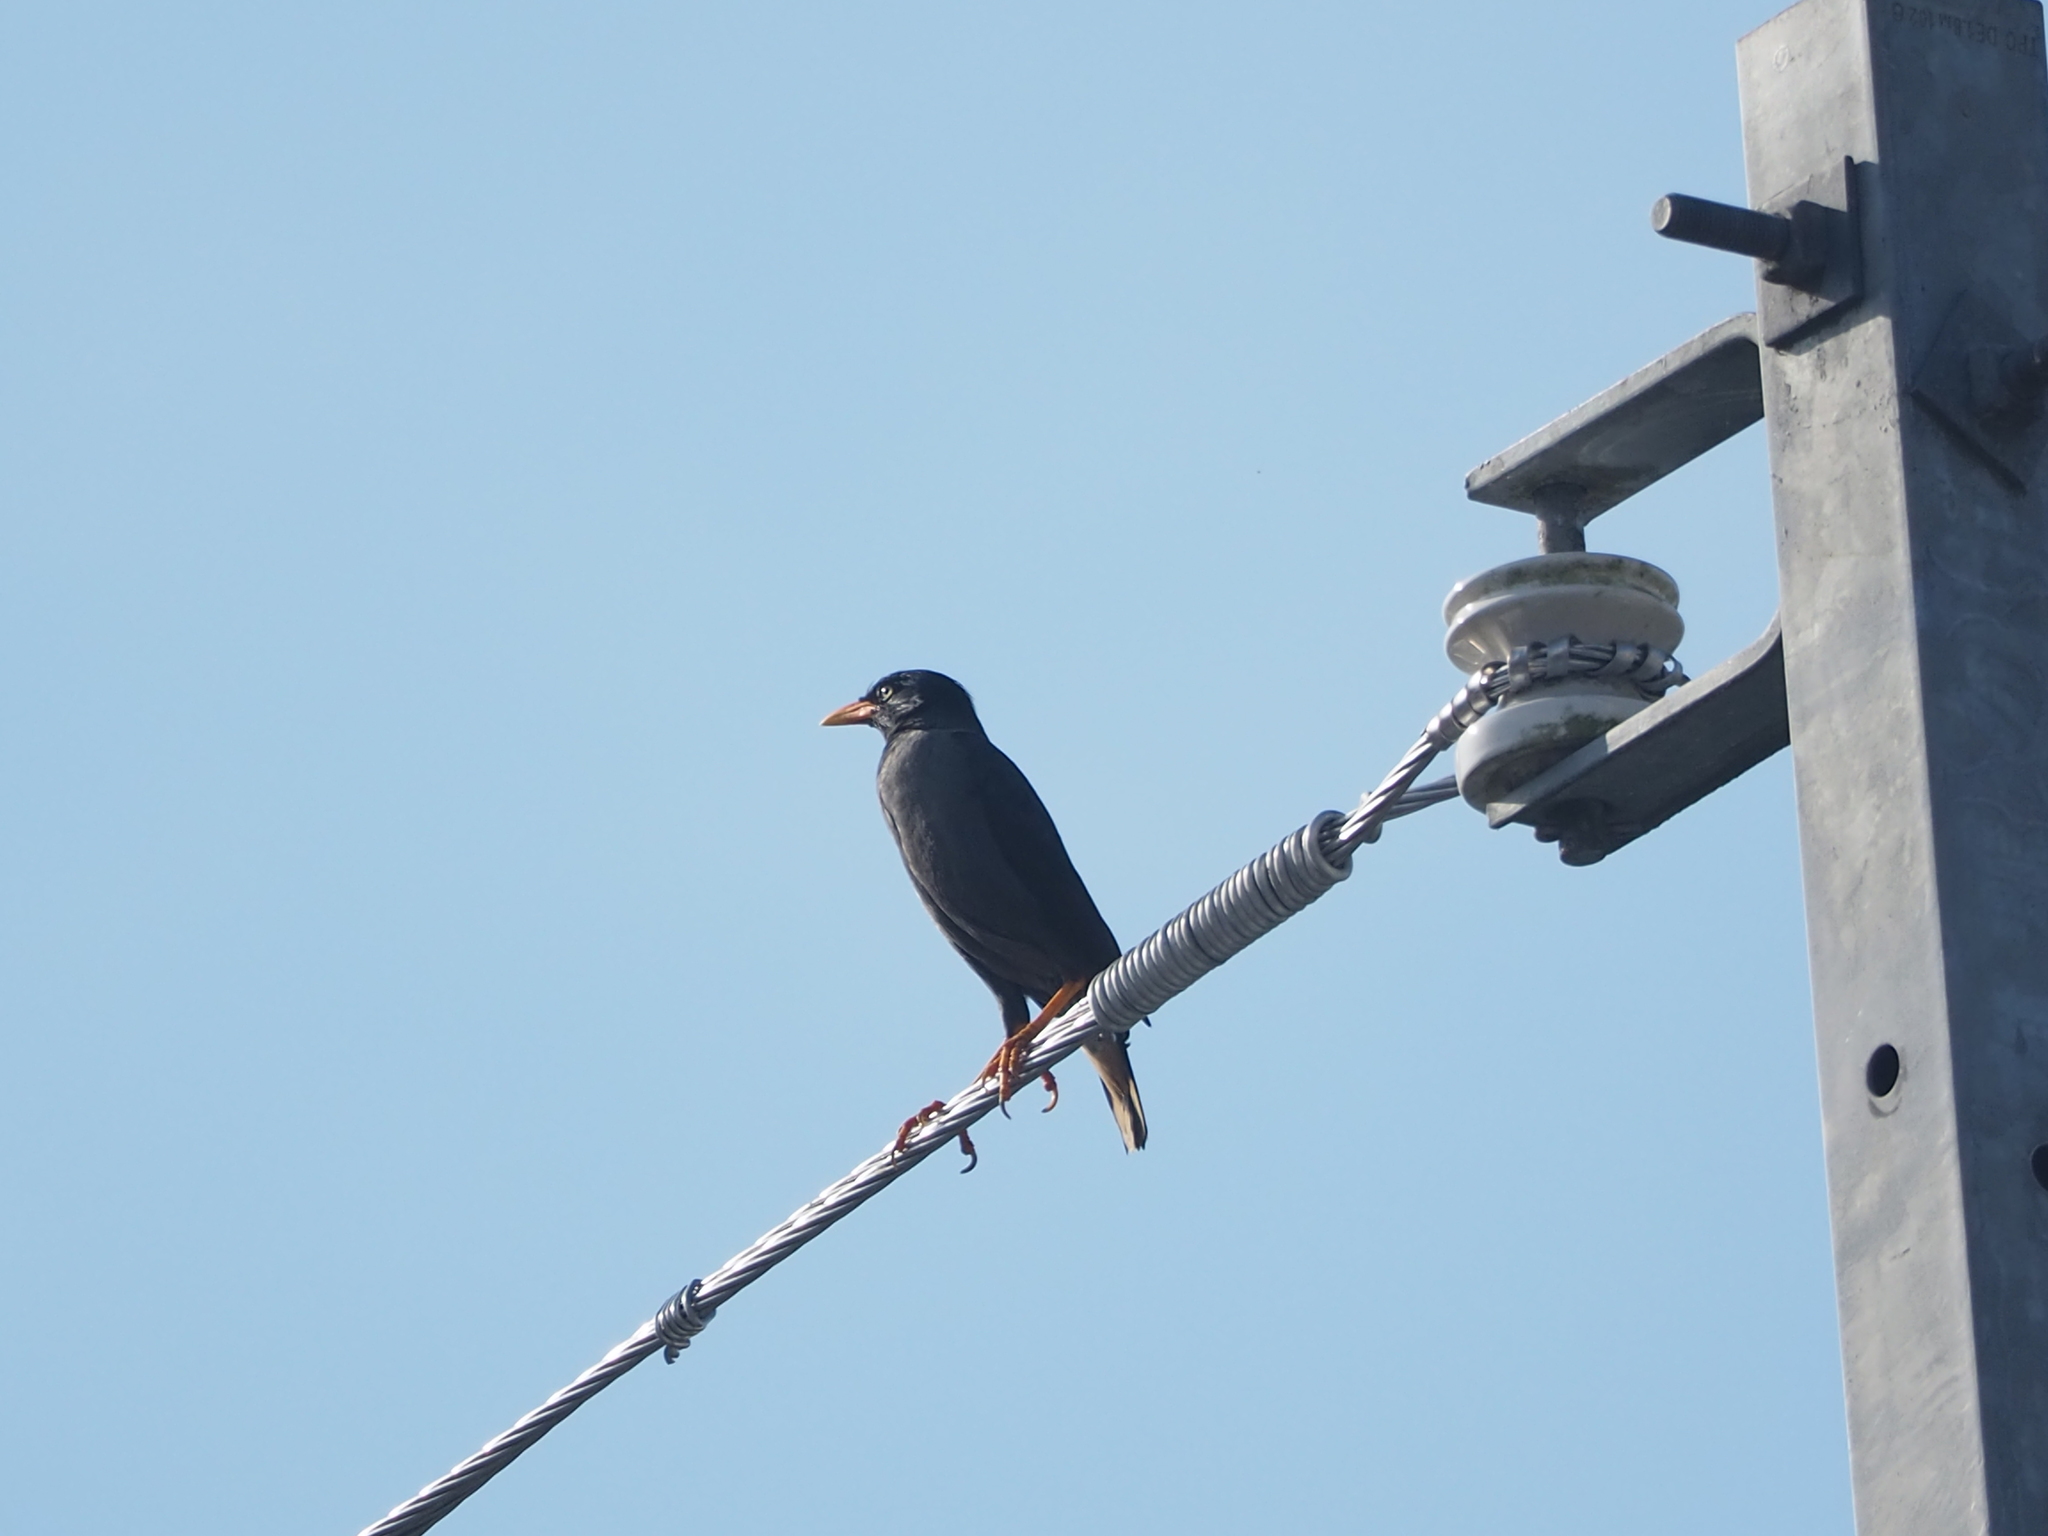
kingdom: Animalia
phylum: Chordata
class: Aves
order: Passeriformes
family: Sturnidae
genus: Acridotheres
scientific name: Acridotheres javanicus
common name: Javan myna
